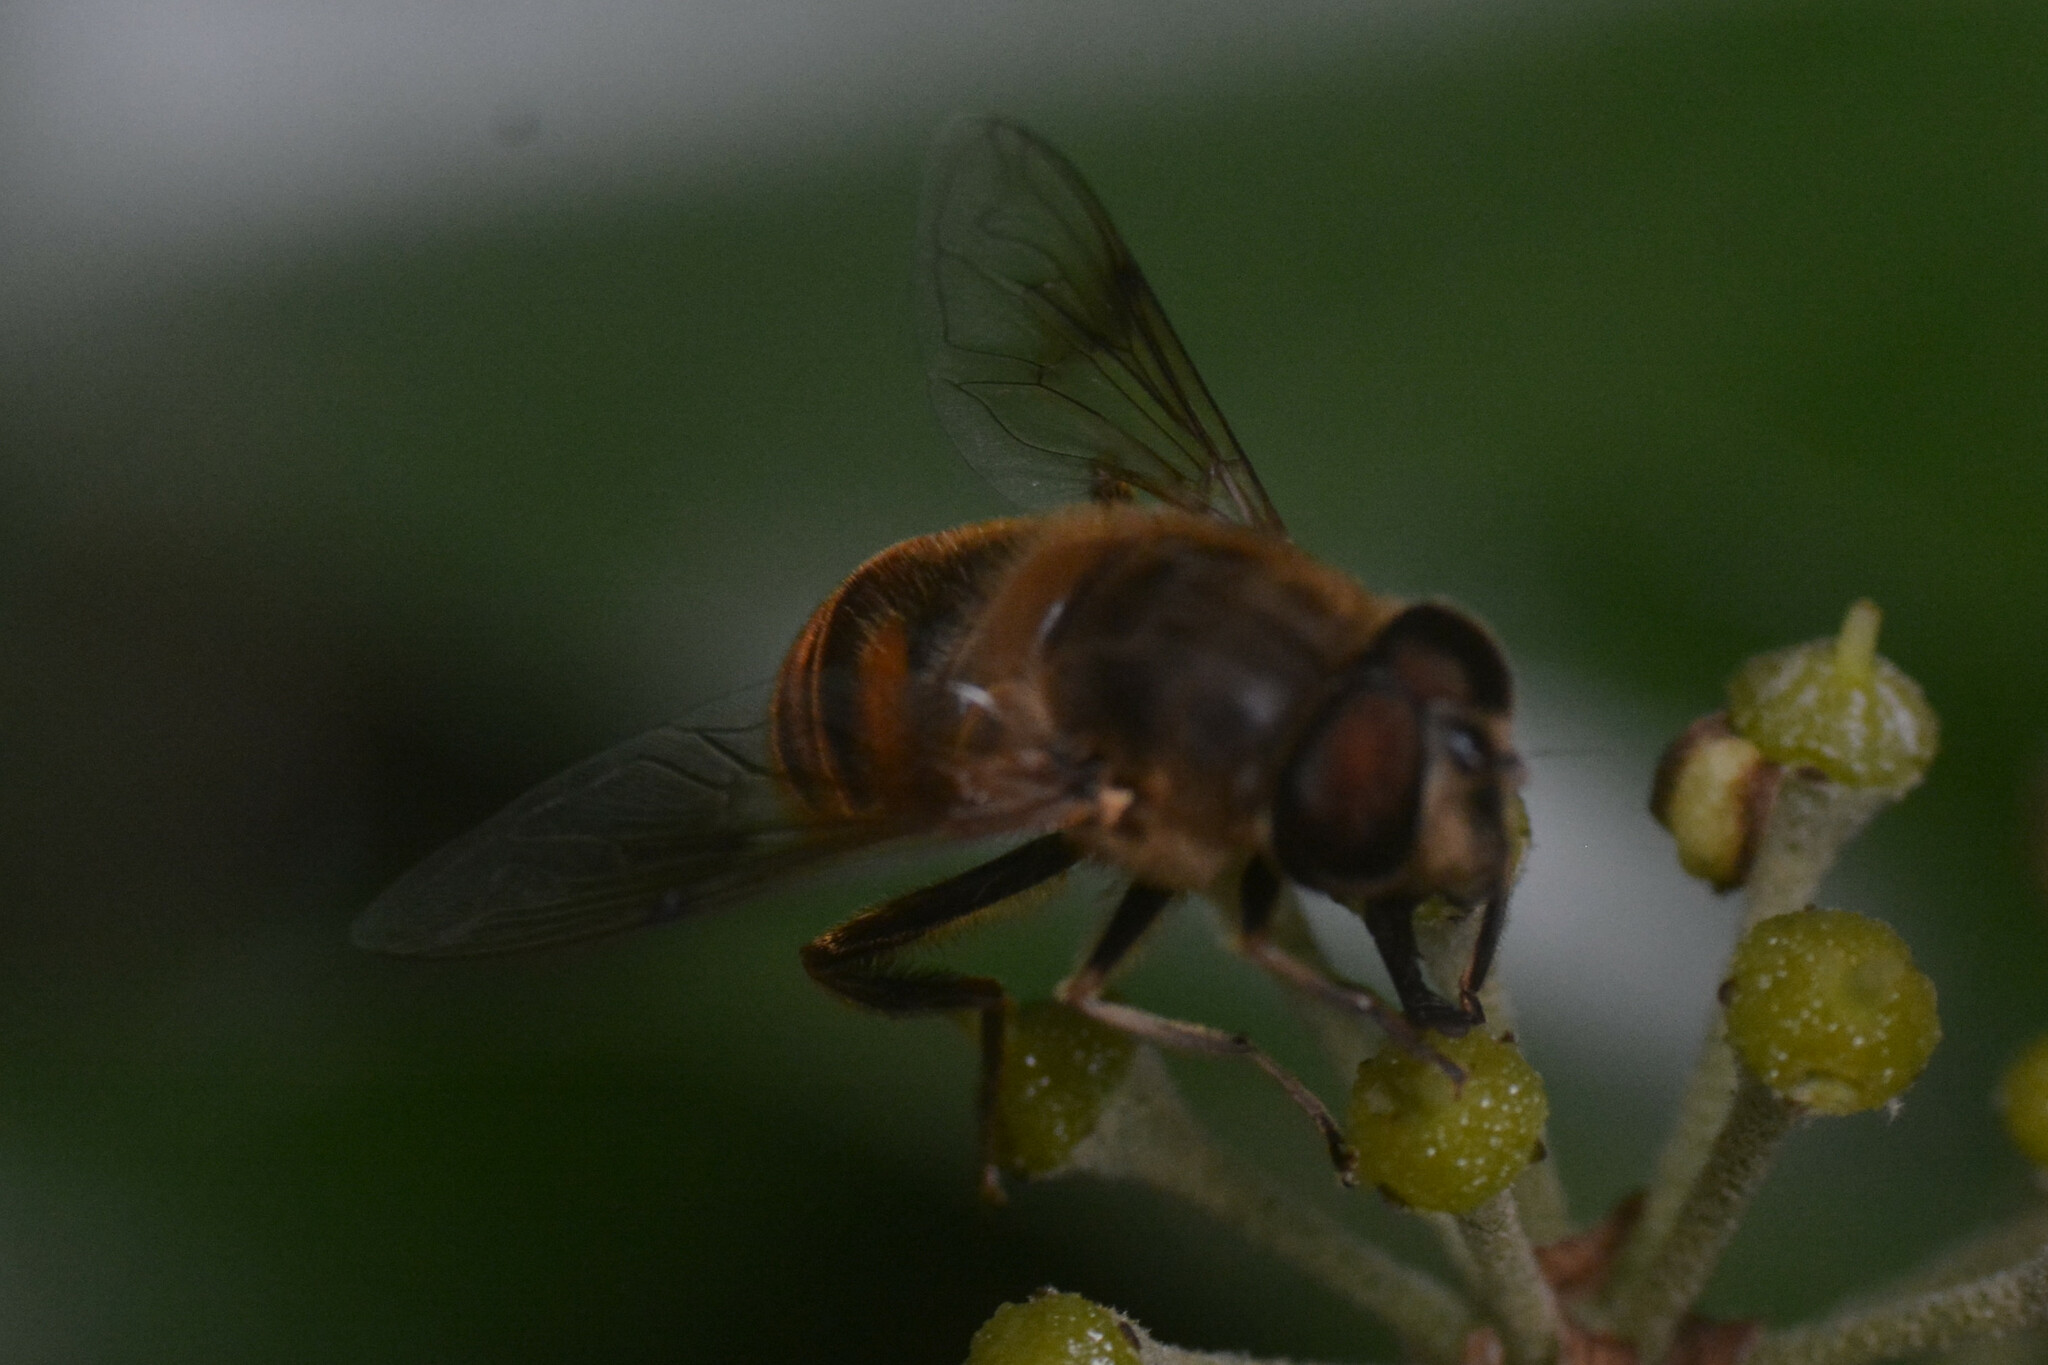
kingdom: Animalia
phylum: Arthropoda
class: Insecta
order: Diptera
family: Syrphidae
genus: Eristalis
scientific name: Eristalis tenax
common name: Drone fly
